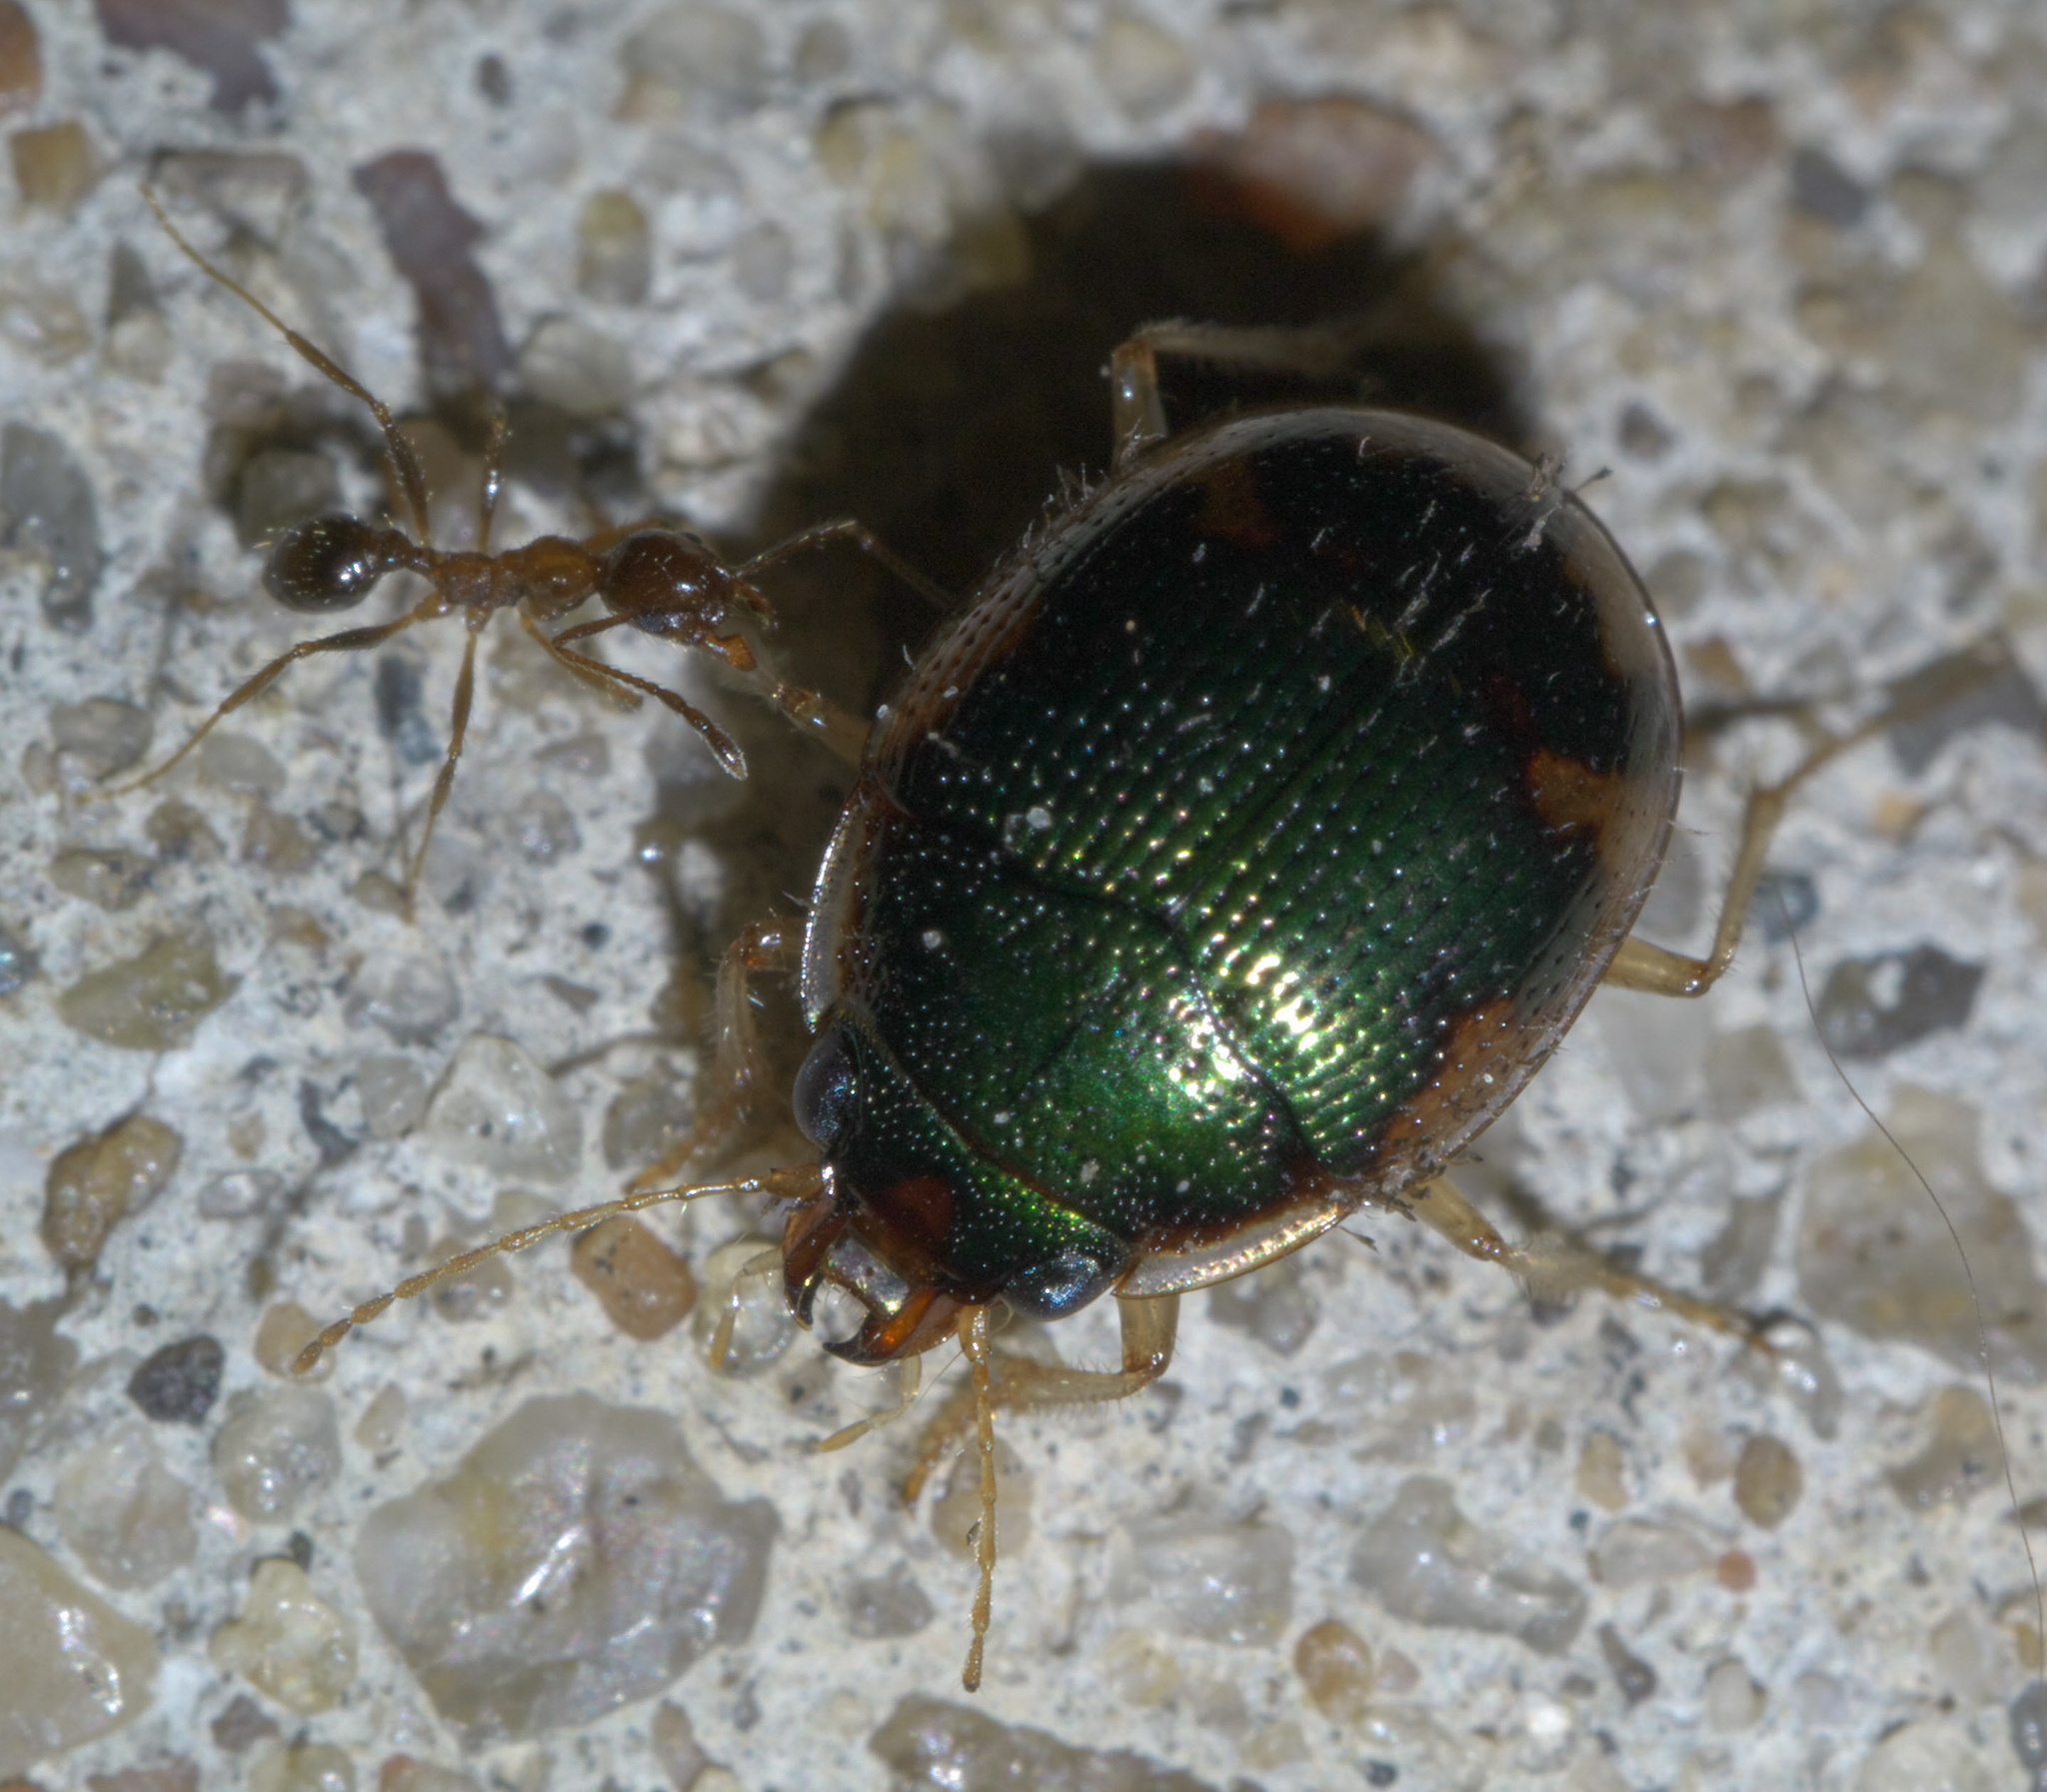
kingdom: Animalia
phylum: Arthropoda
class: Insecta
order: Hymenoptera
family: Formicidae
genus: Pheidole
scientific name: Pheidole dentata
